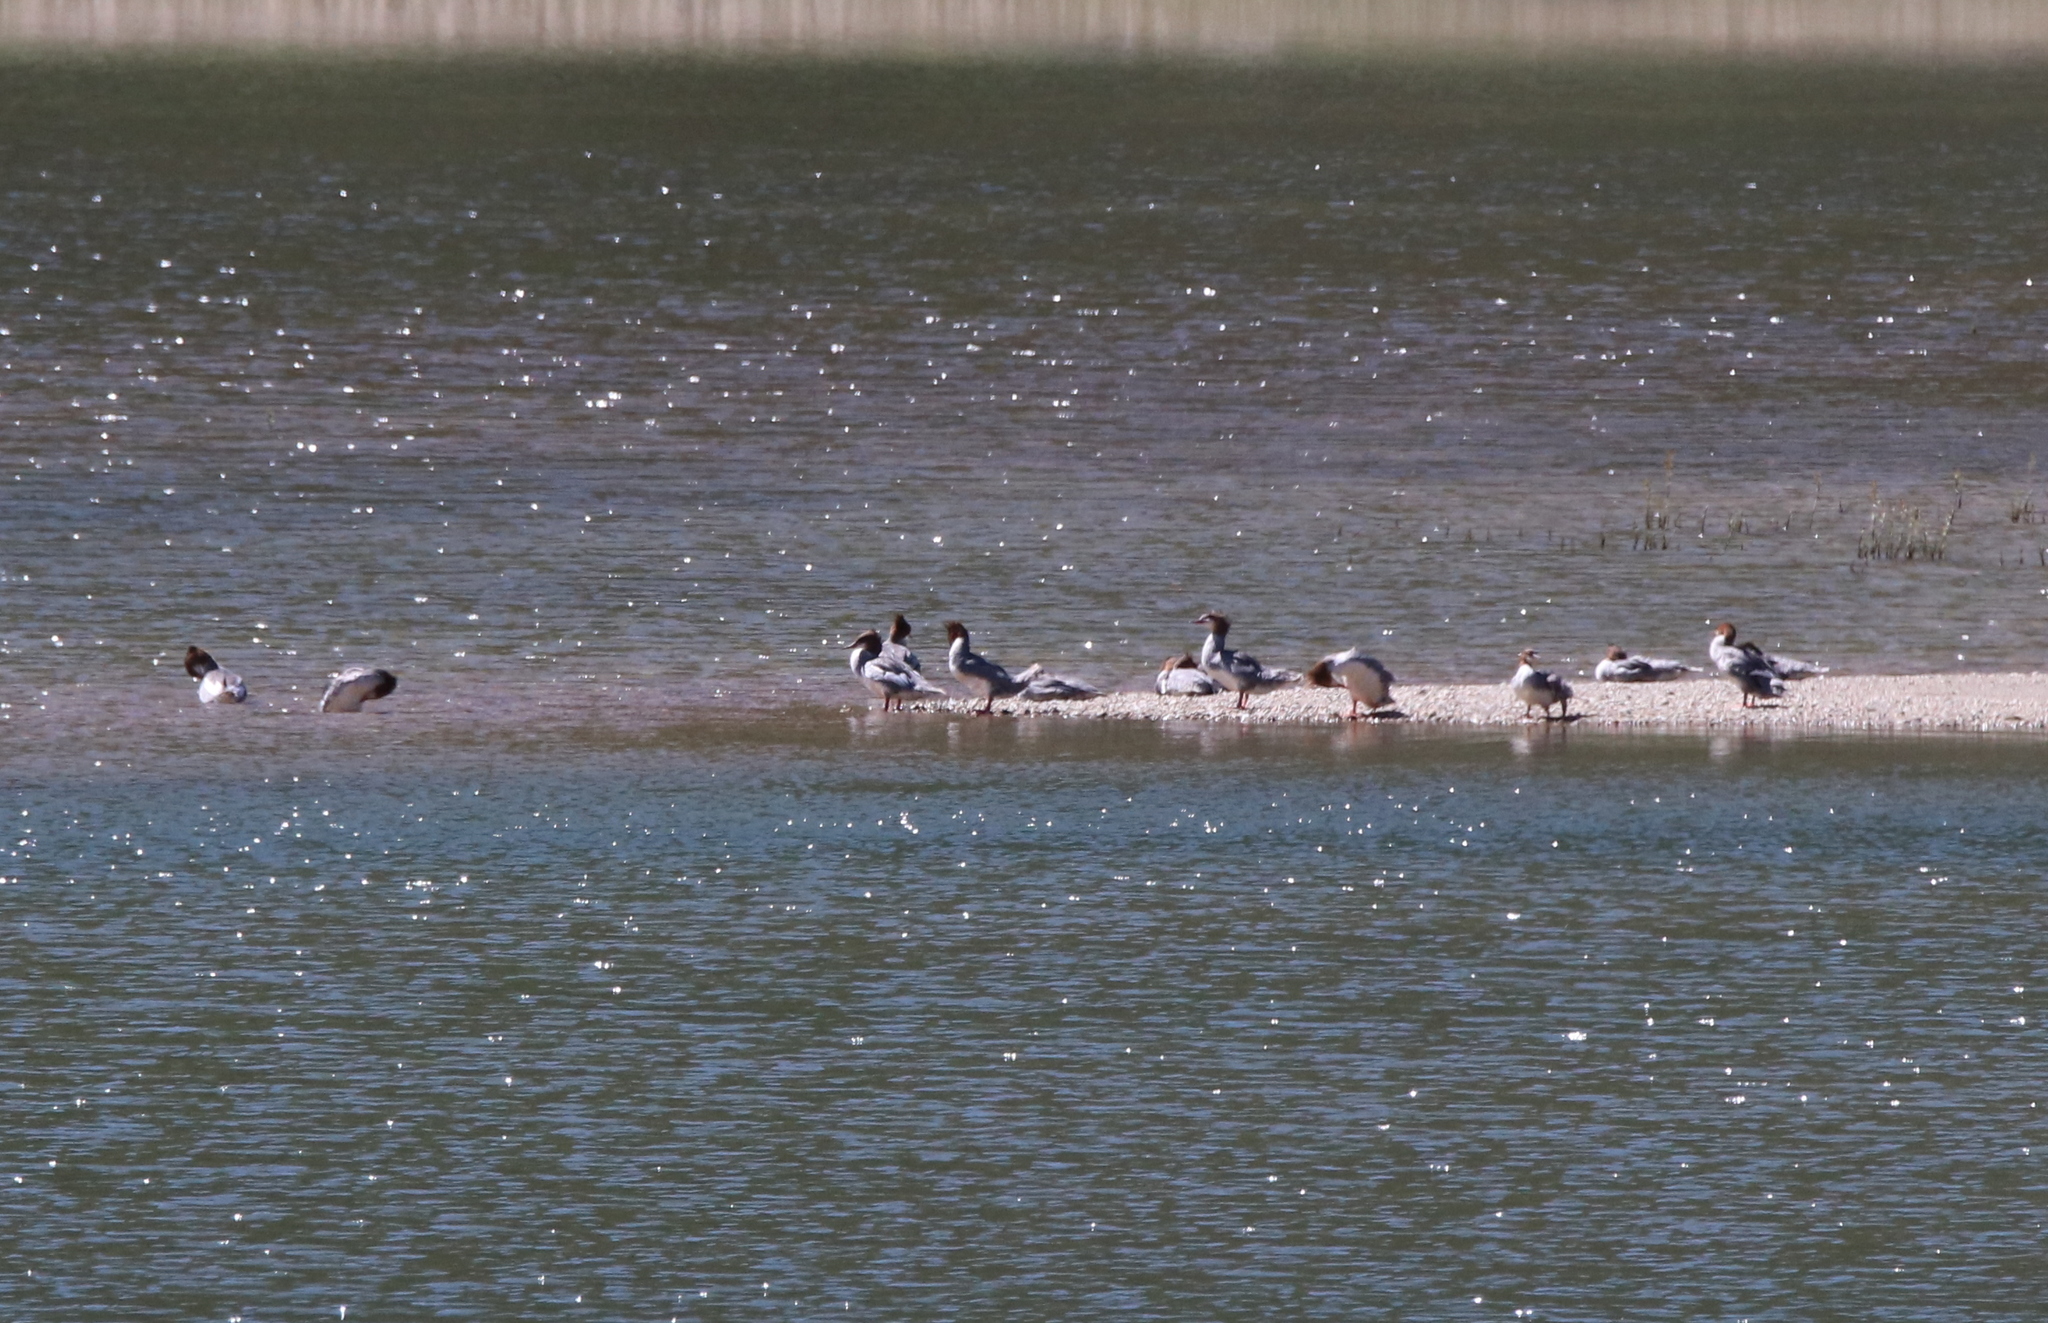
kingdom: Animalia
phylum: Chordata
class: Aves
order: Anseriformes
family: Anatidae
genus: Mergus
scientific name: Mergus merganser
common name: Common merganser
